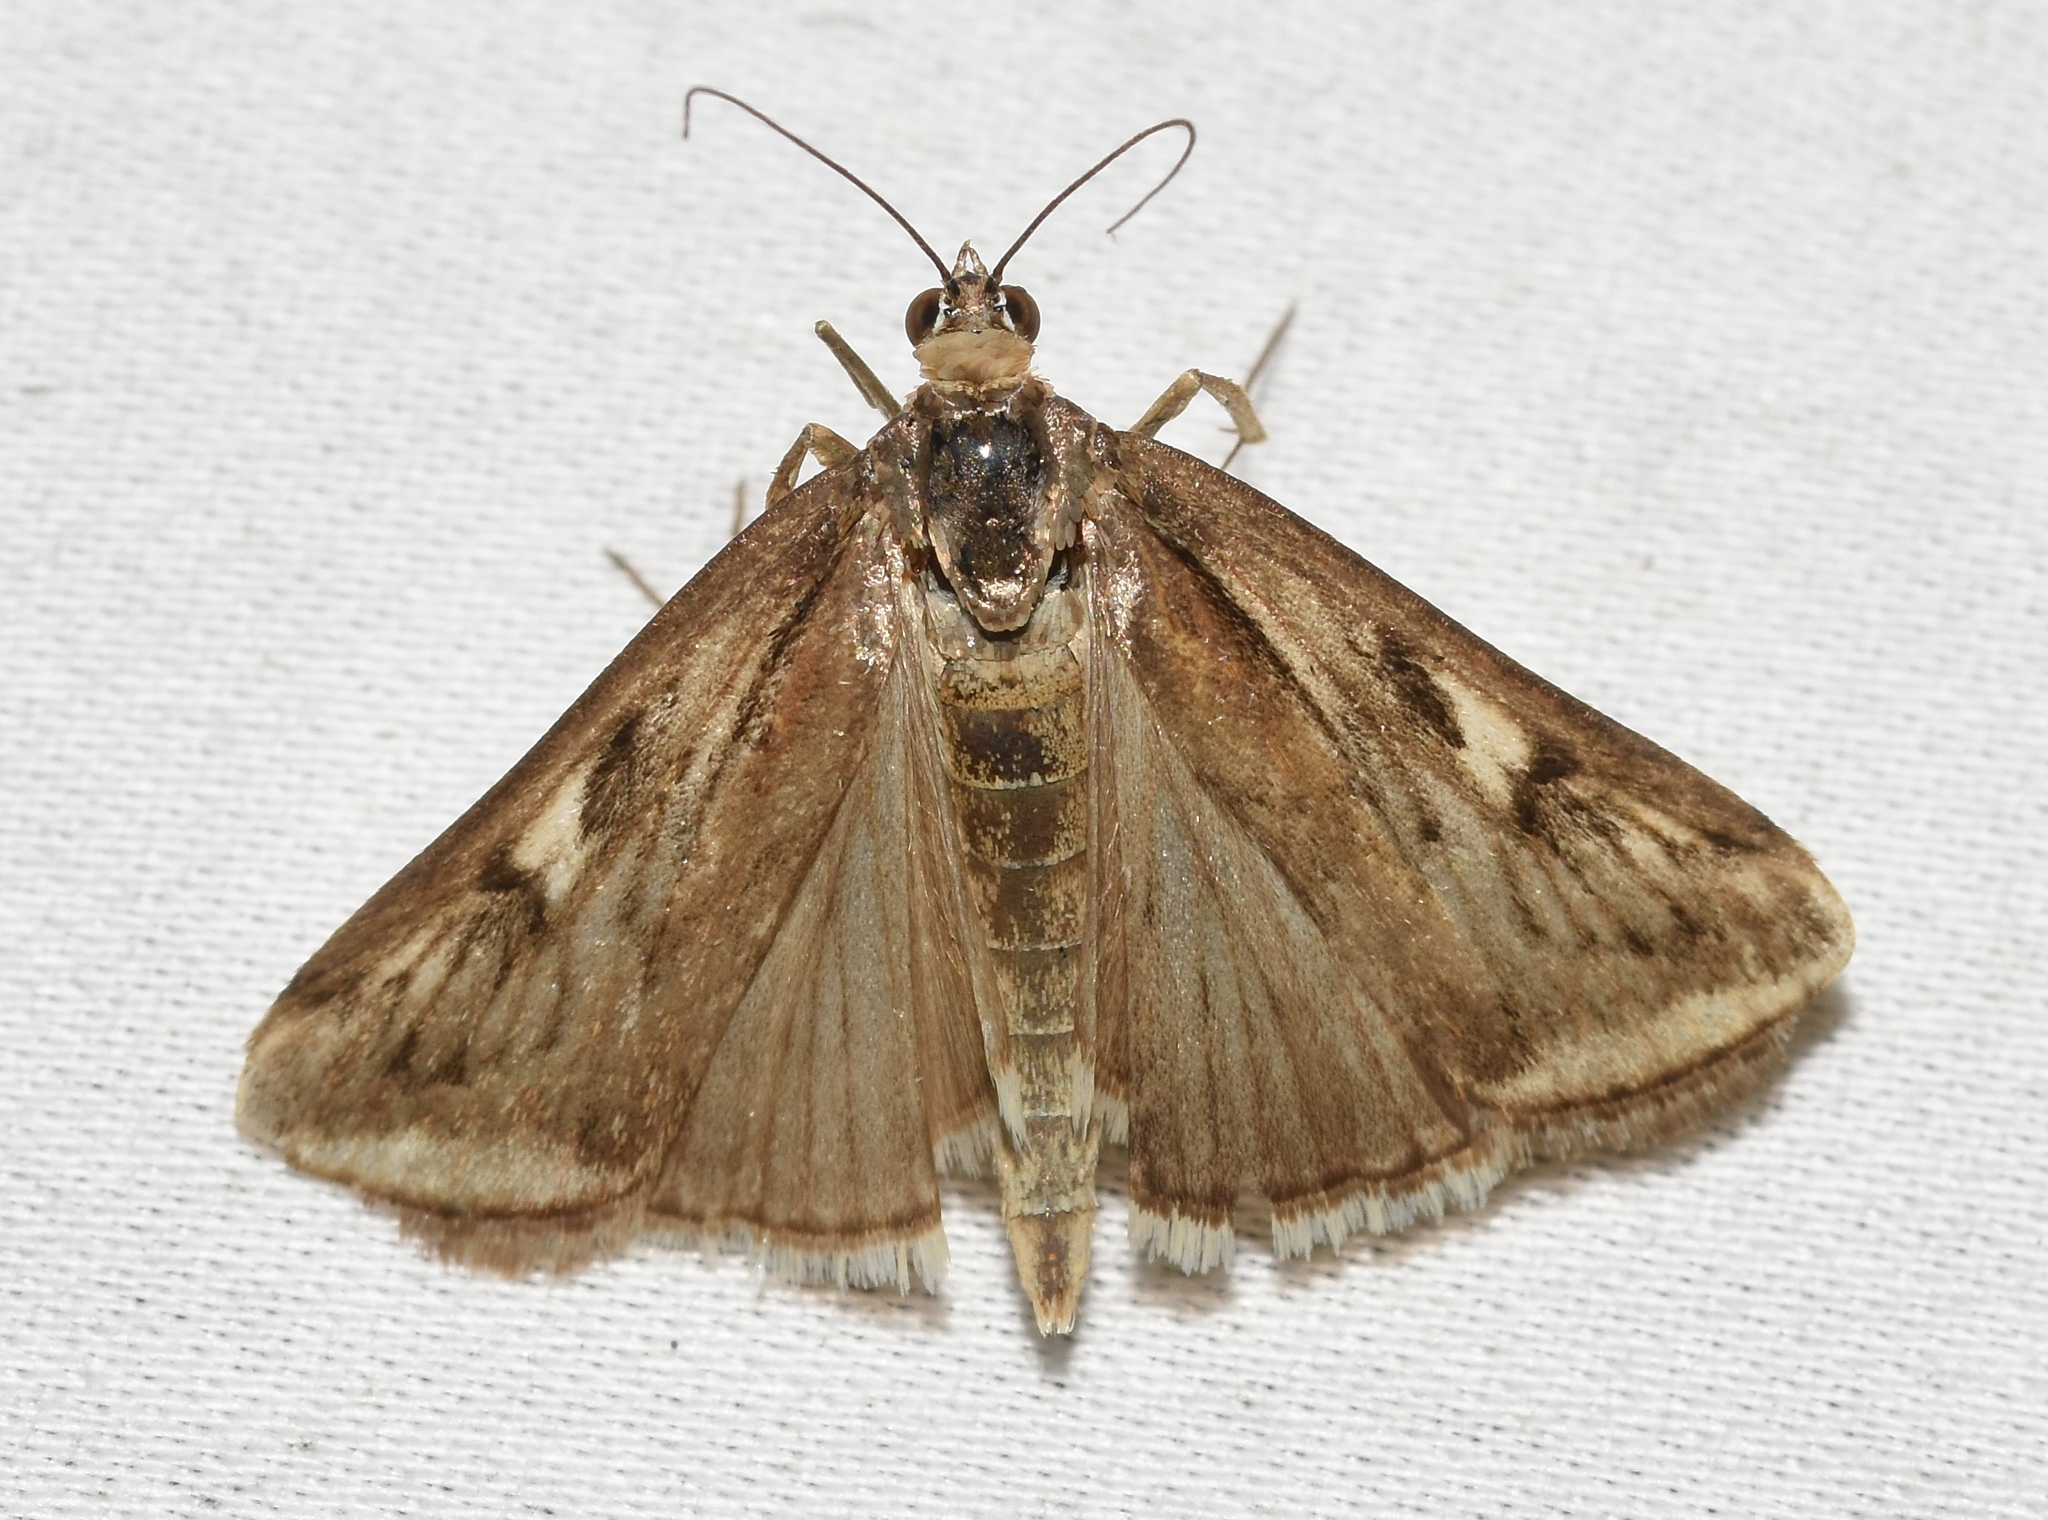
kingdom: Animalia
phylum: Arthropoda
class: Insecta
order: Lepidoptera
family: Crambidae
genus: Loxostege
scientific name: Loxostege cereralis
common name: Alfalfa webworm moth
